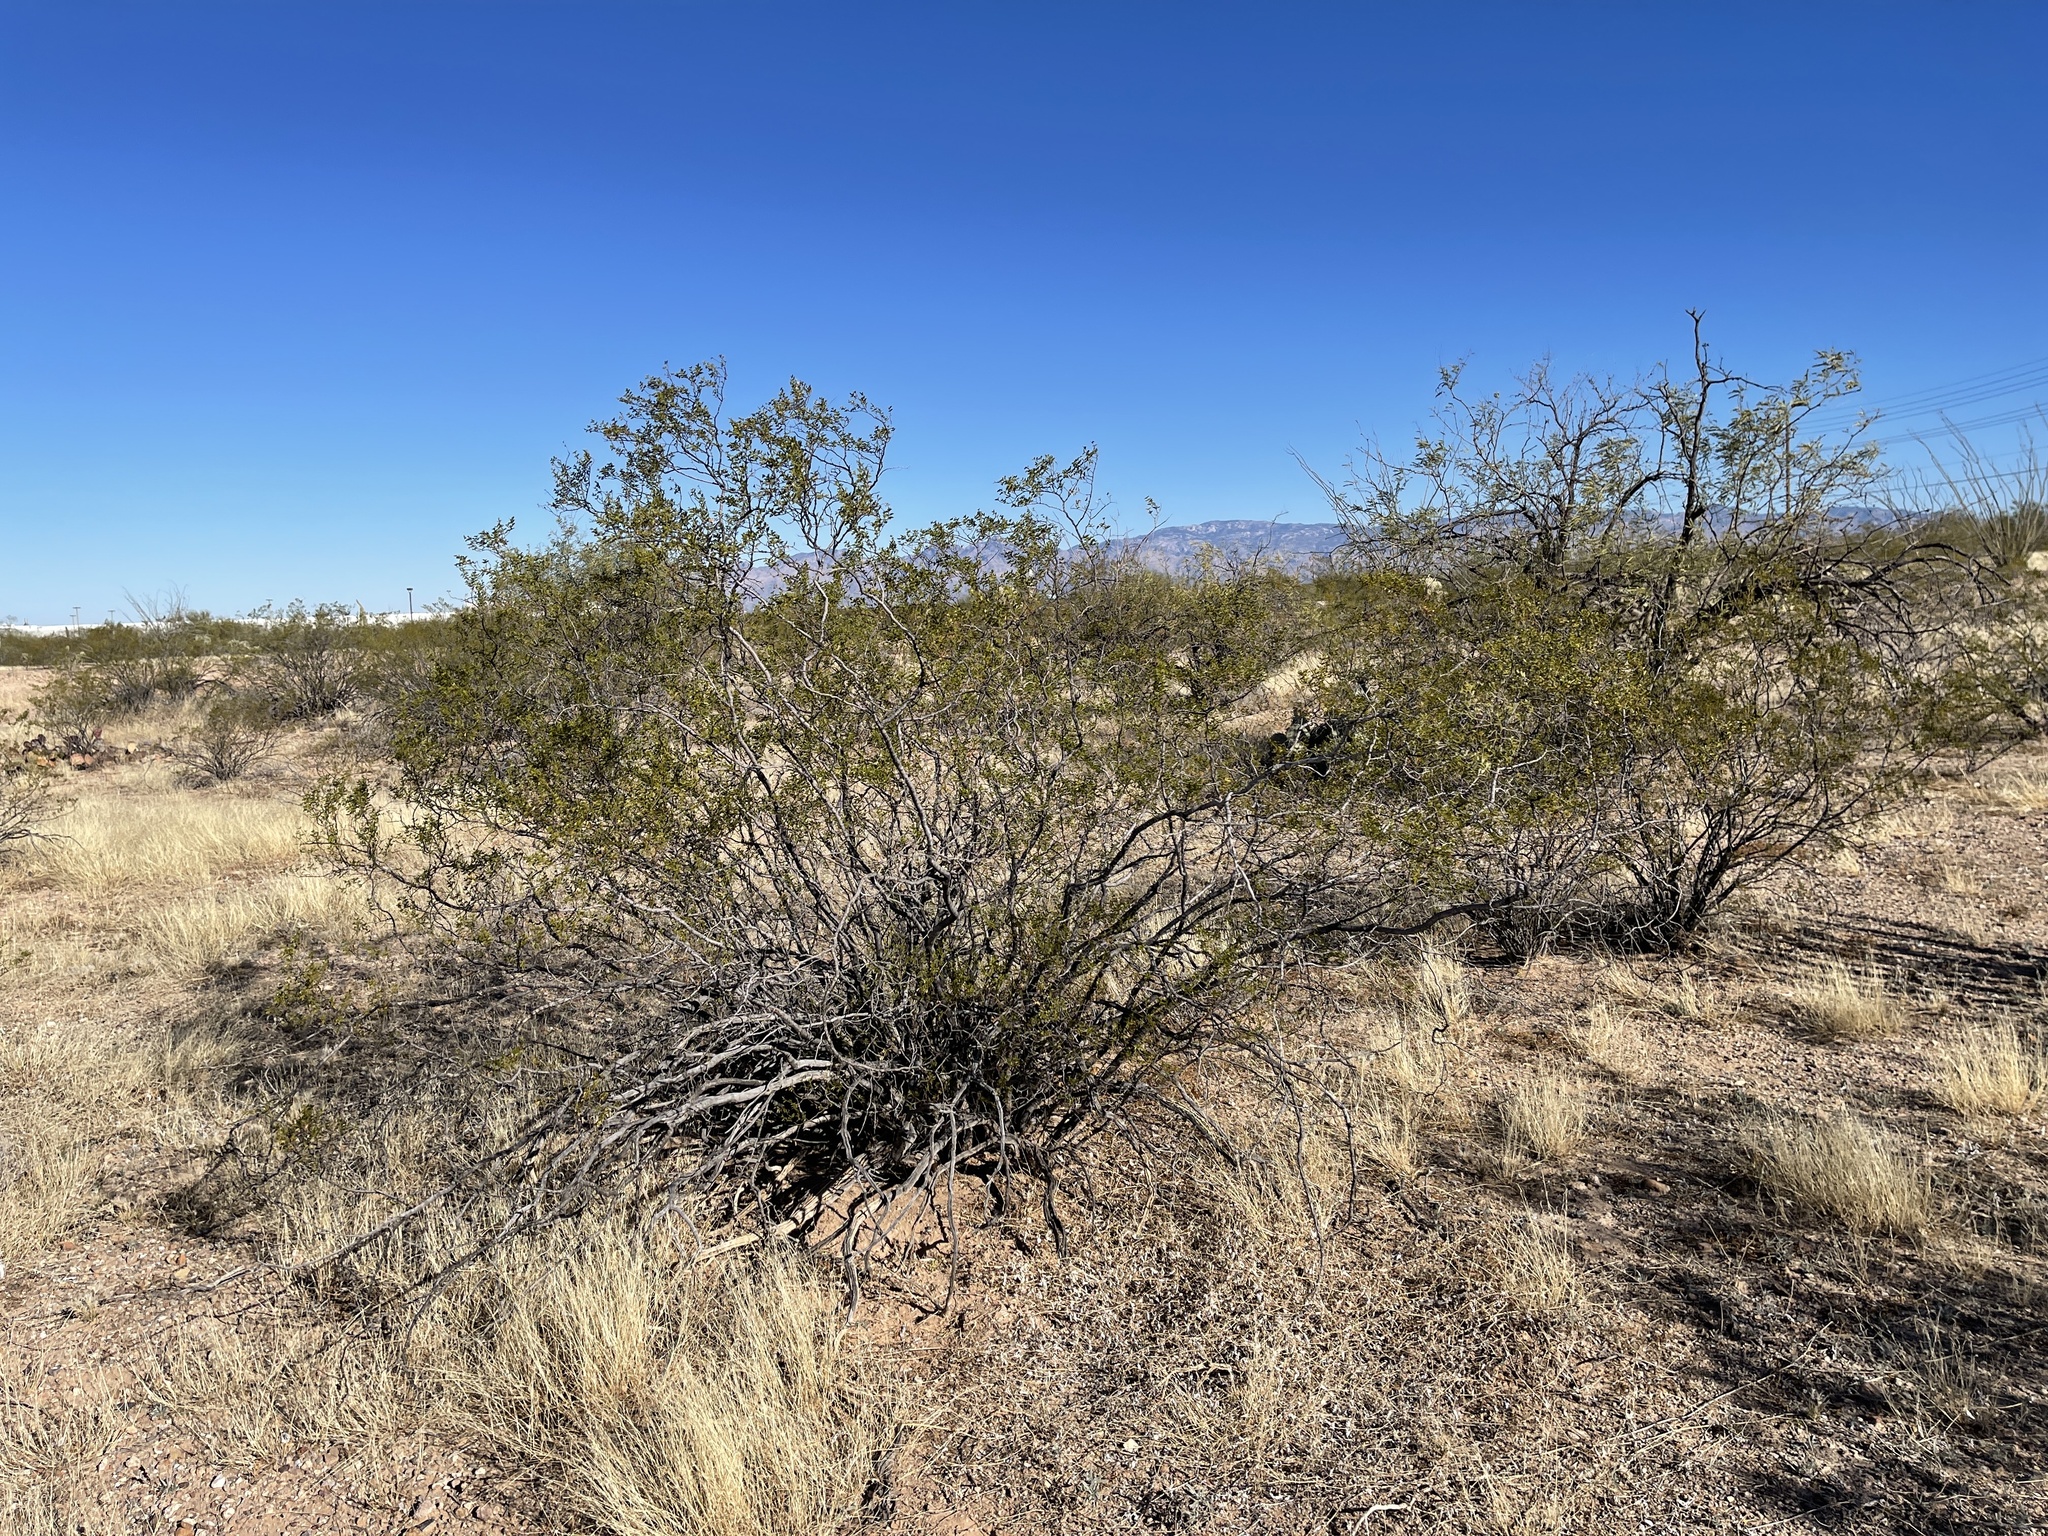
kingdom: Plantae
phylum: Tracheophyta
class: Magnoliopsida
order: Zygophyllales
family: Zygophyllaceae
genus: Larrea
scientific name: Larrea tridentata
